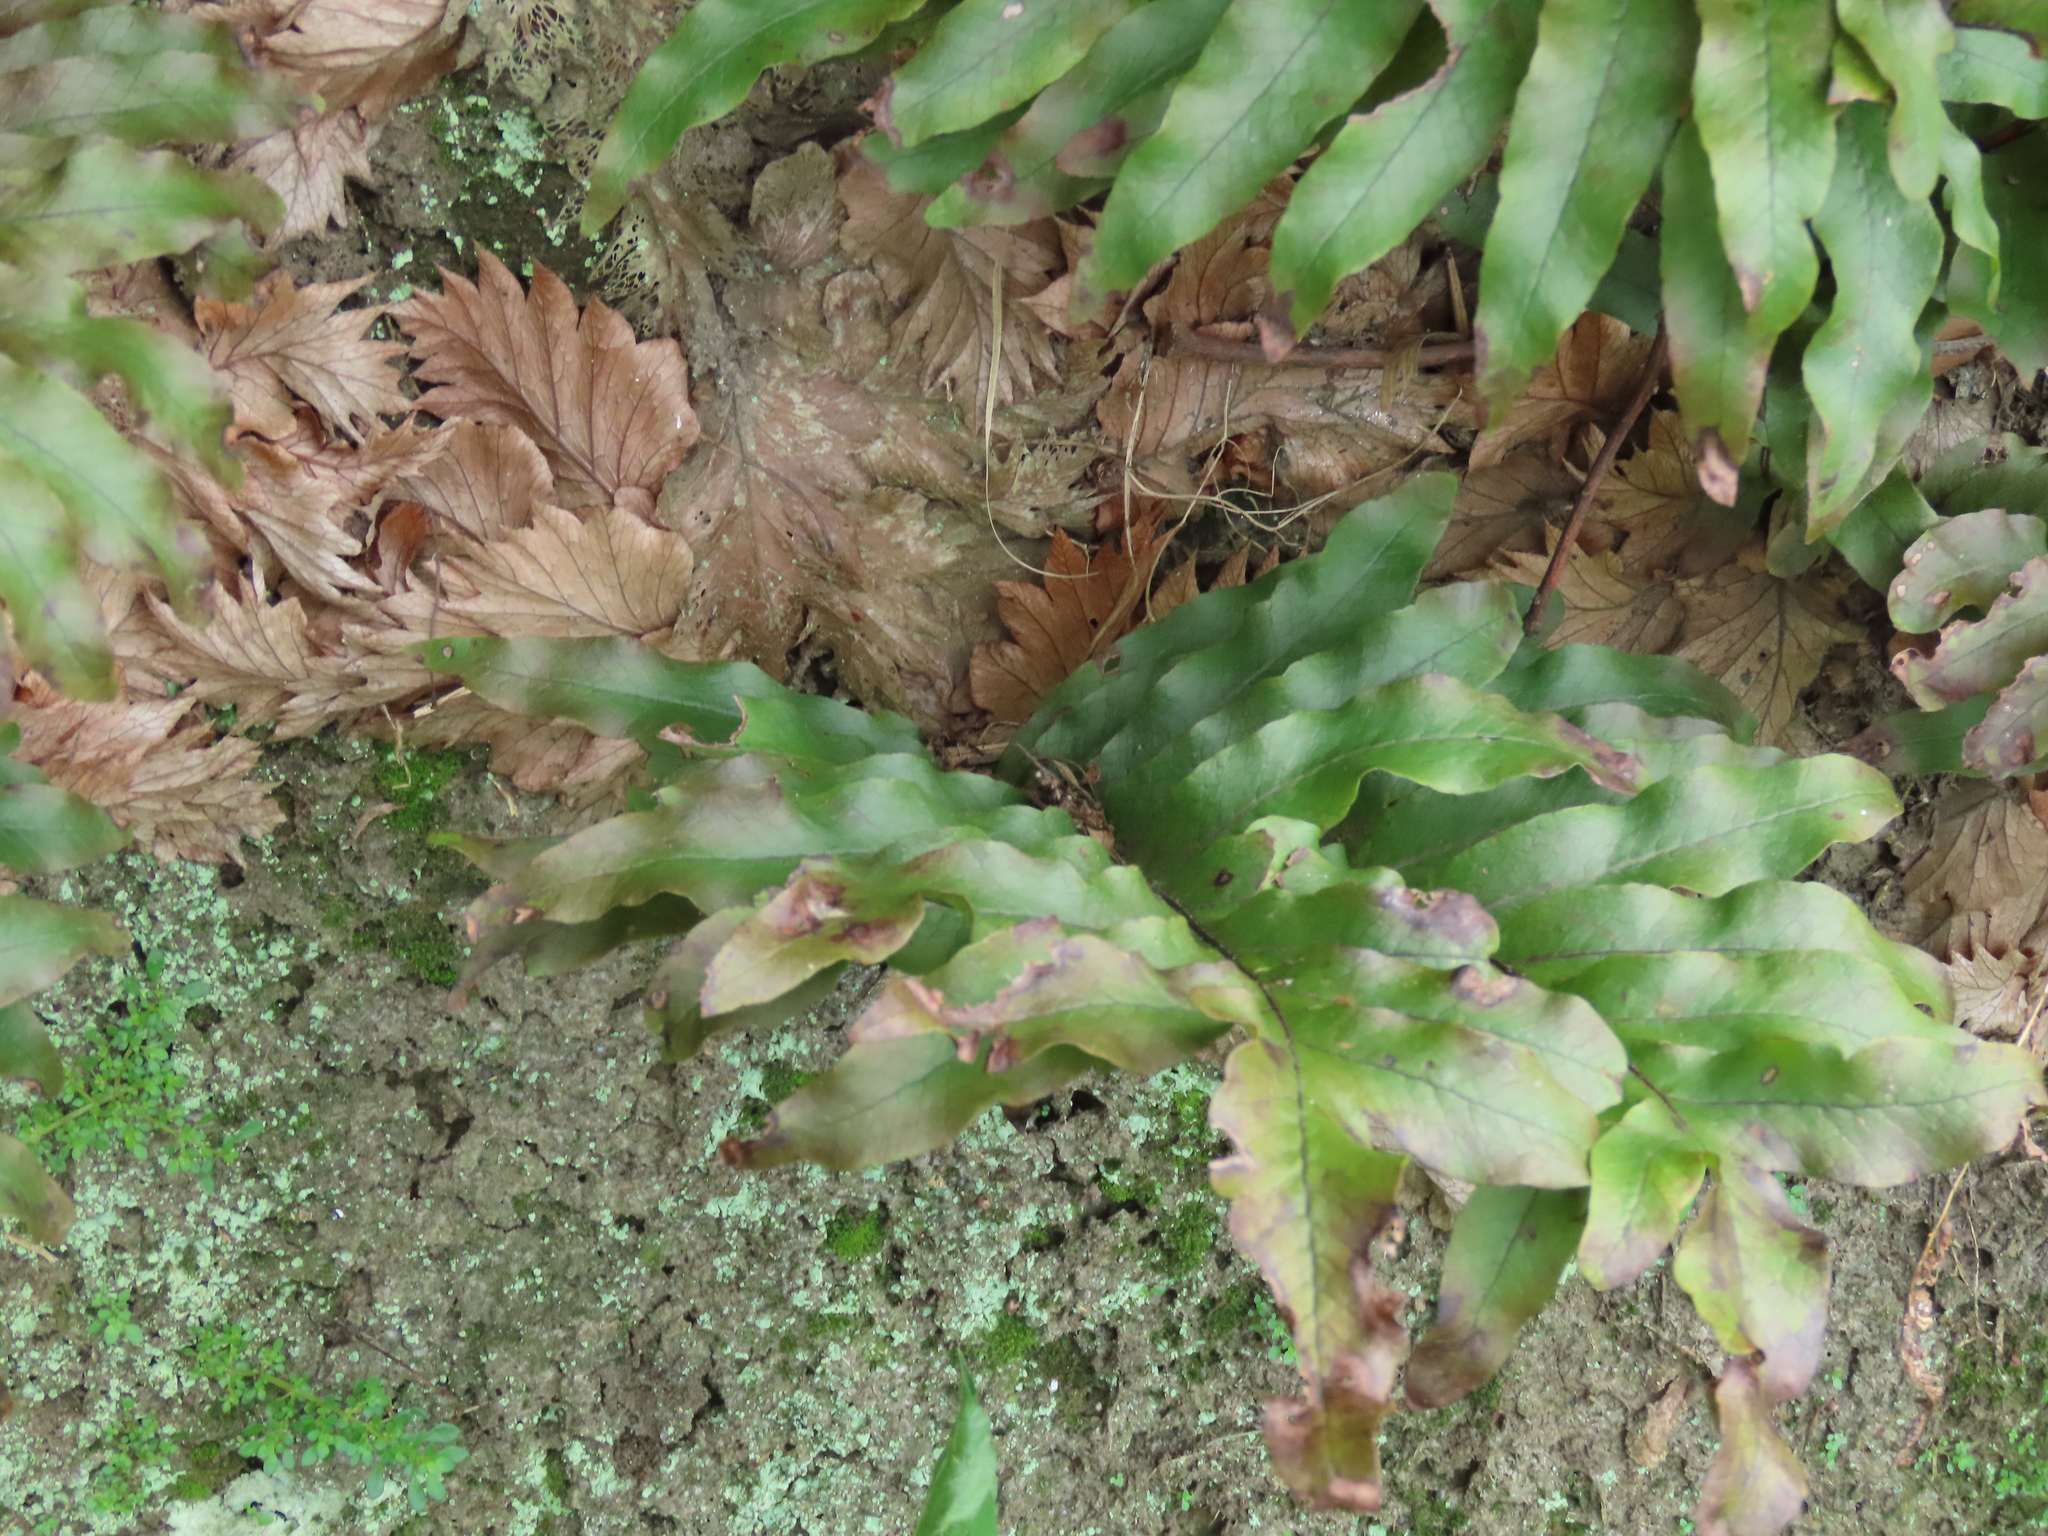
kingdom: Plantae
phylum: Tracheophyta
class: Polypodiopsida
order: Polypodiales
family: Polypodiaceae
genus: Drynaria
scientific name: Drynaria roosii
